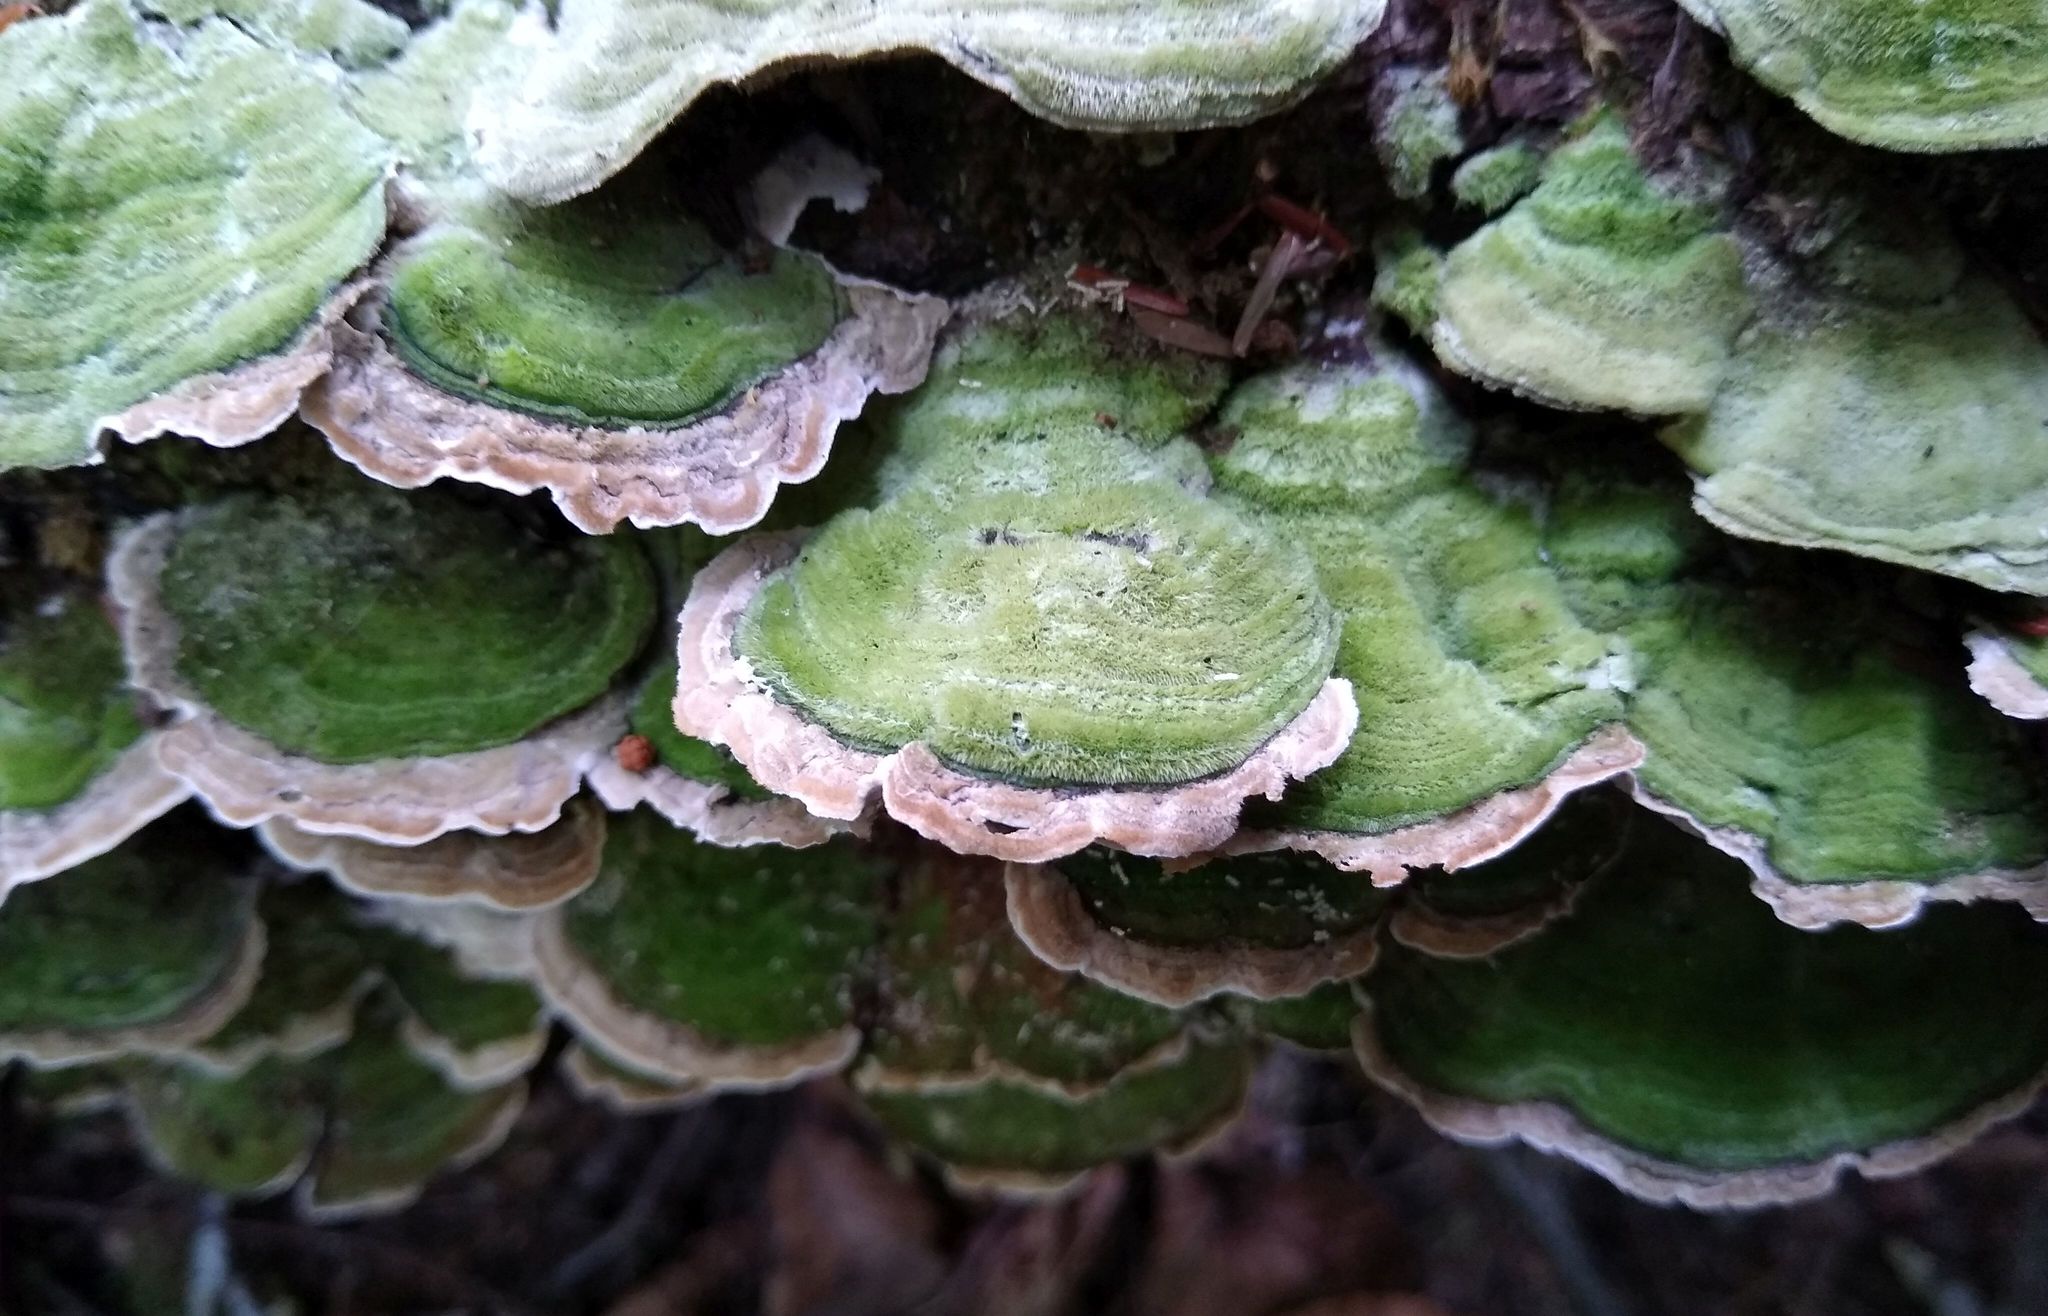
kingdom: Fungi
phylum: Basidiomycota
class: Agaricomycetes
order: Polyporales
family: Cerrenaceae
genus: Cerrena
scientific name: Cerrena unicolor
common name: Mossy maze polypore
